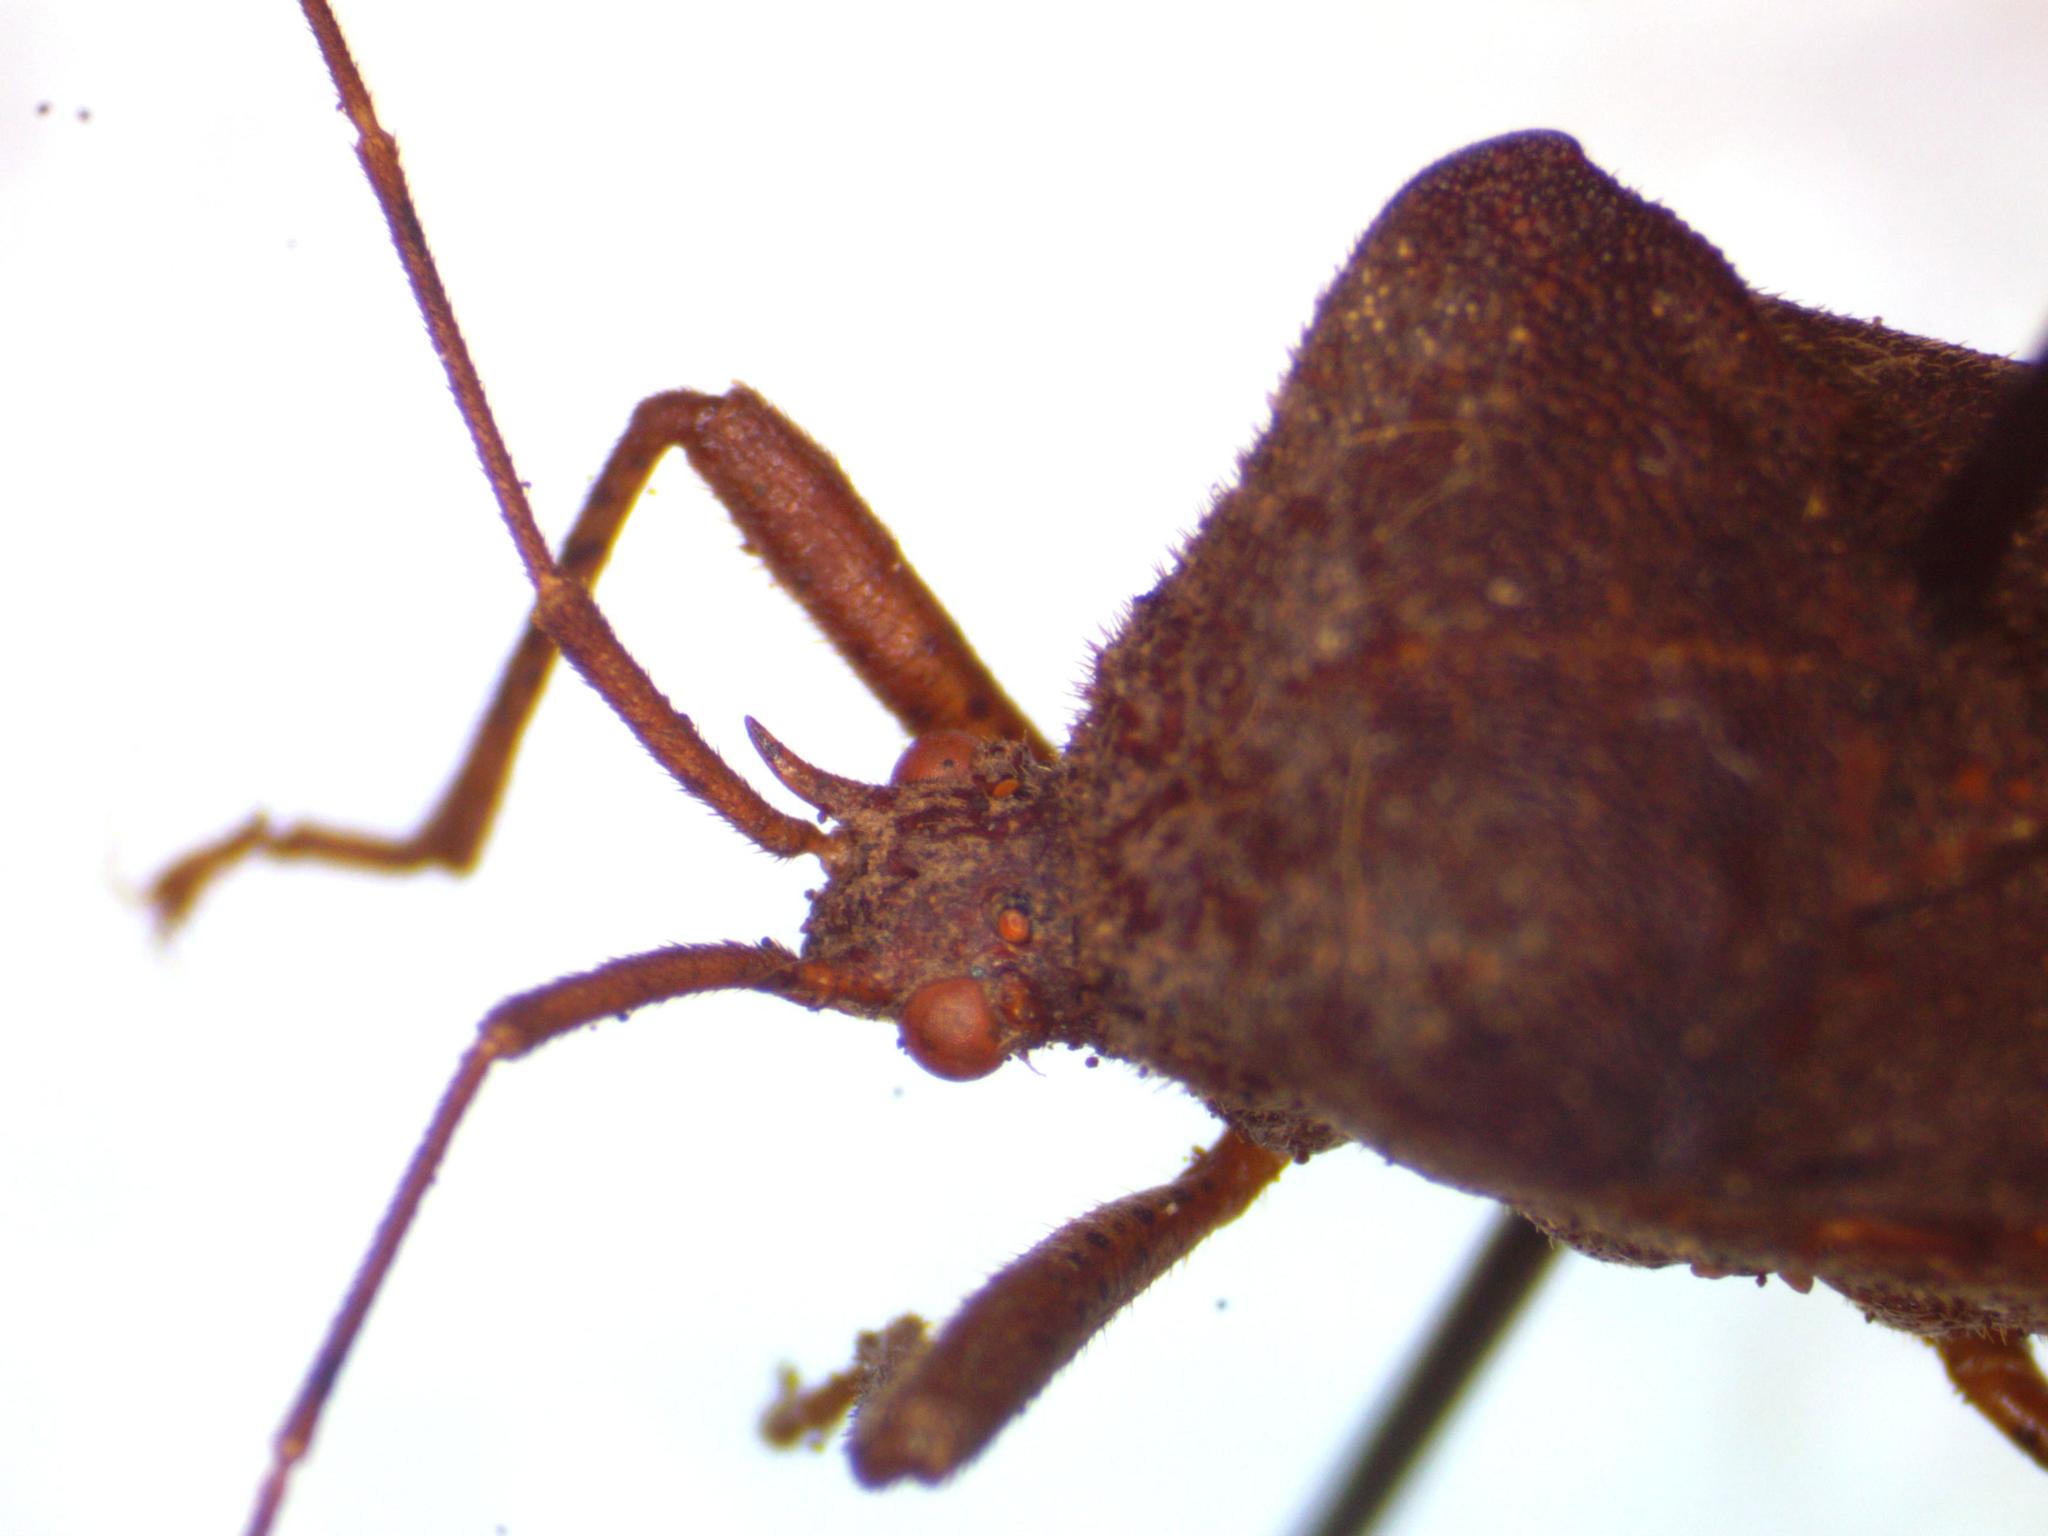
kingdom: Animalia
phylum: Arthropoda
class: Insecta
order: Hemiptera
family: Coreidae
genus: Anasa
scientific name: Anasa scorbutica
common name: Squash bug
